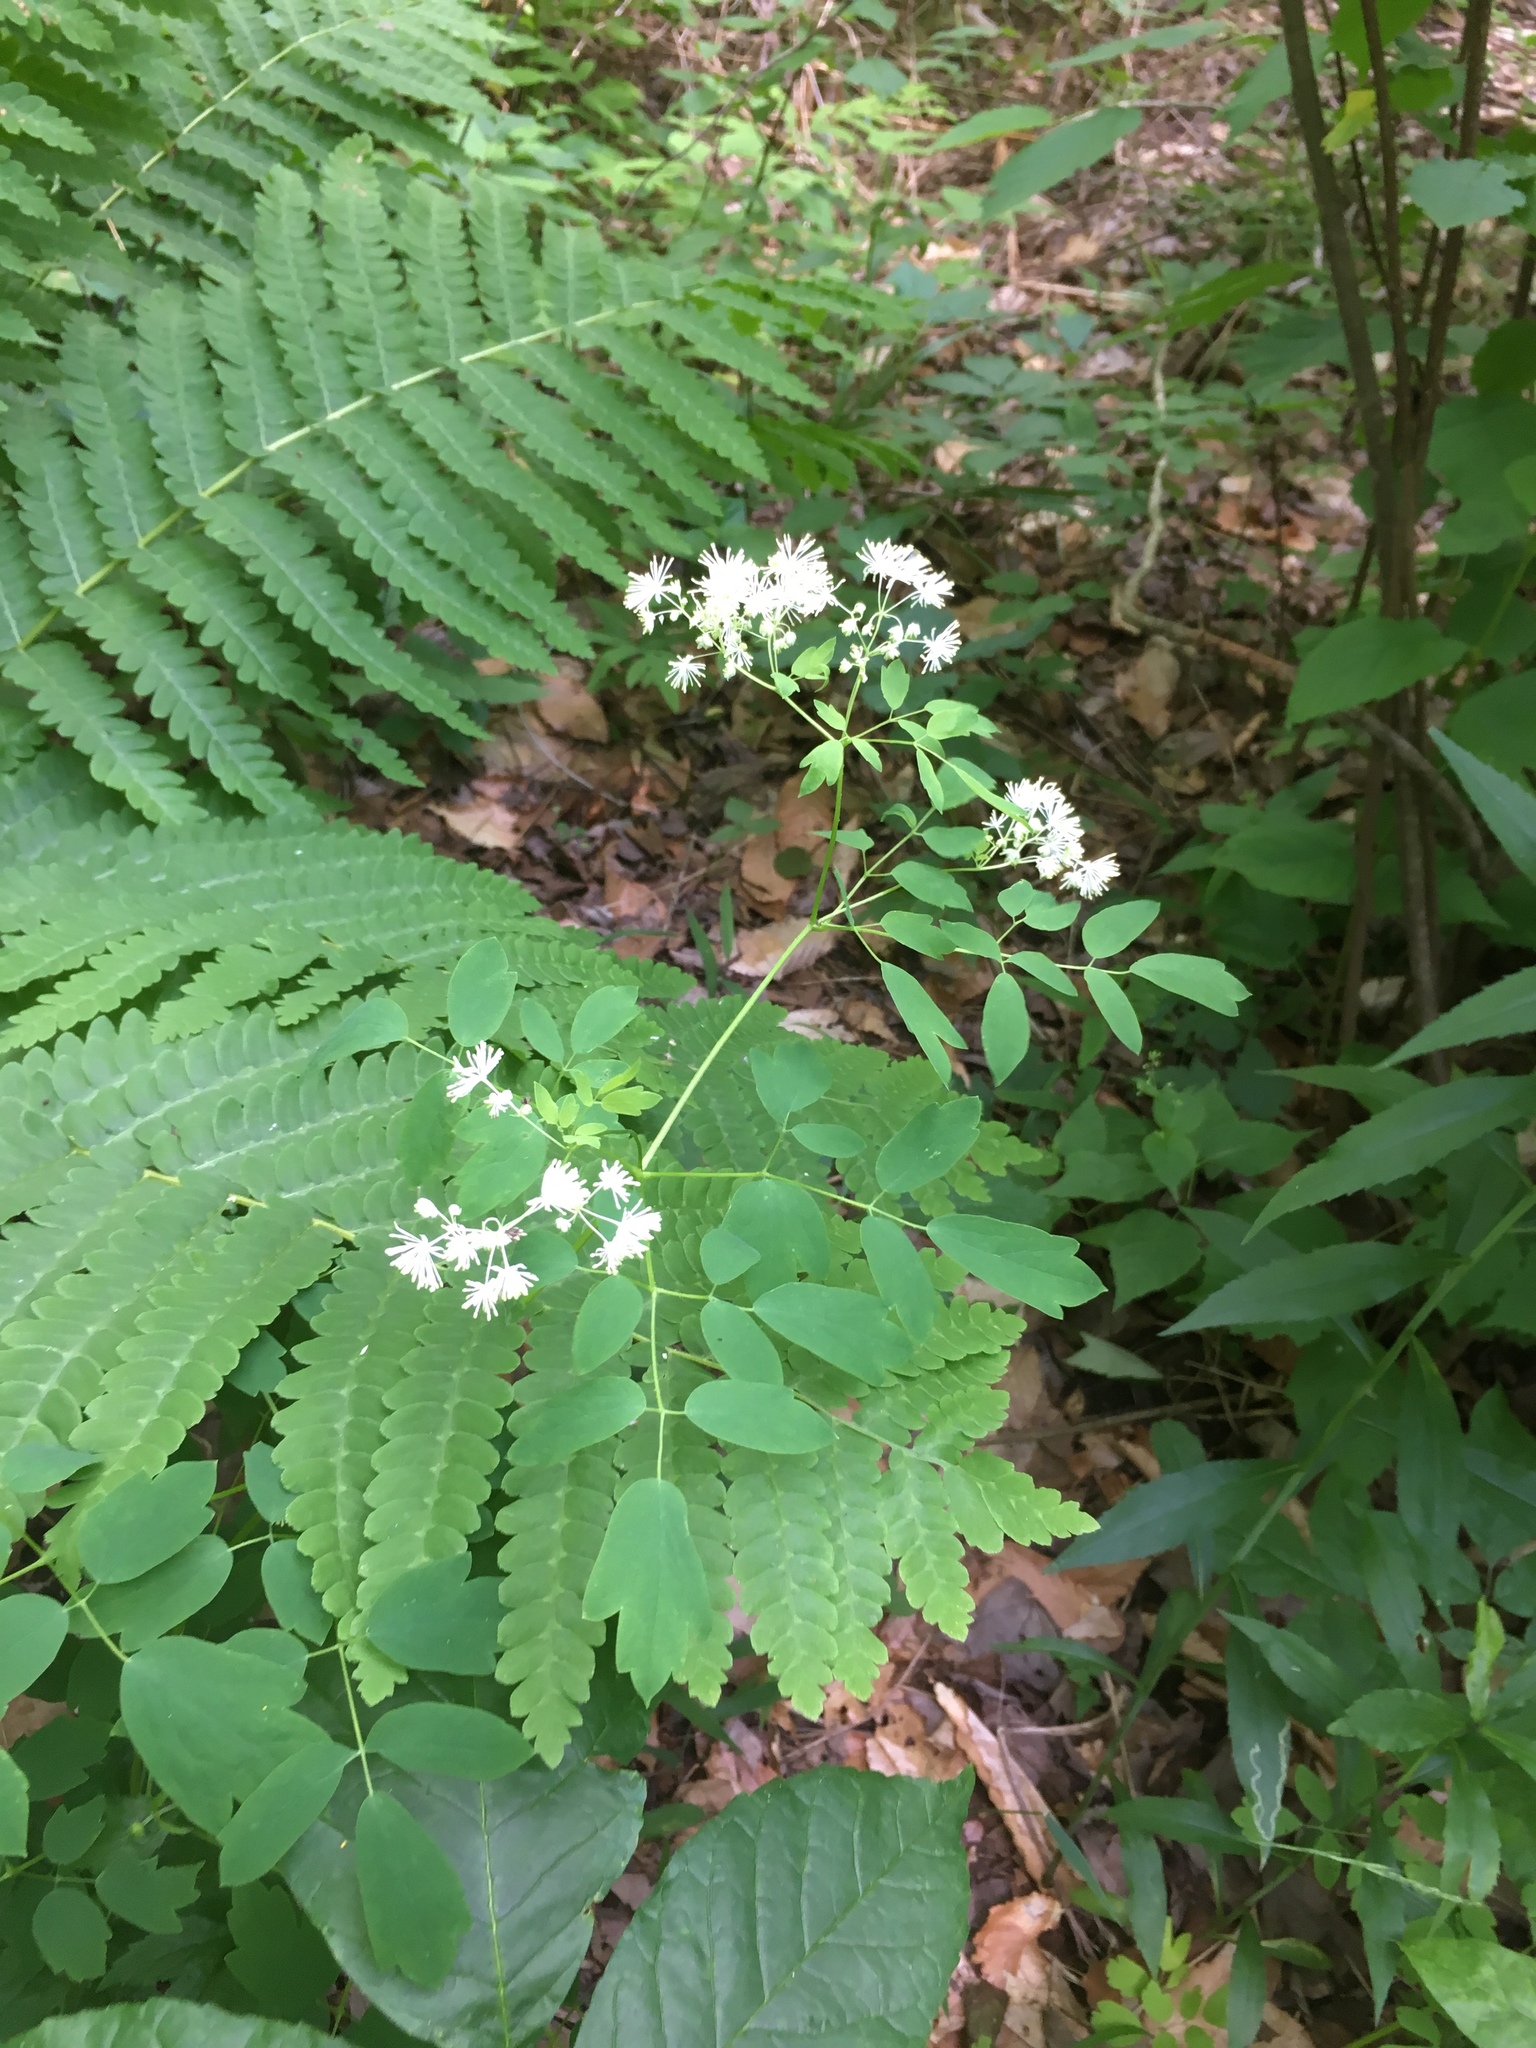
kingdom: Plantae
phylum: Tracheophyta
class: Magnoliopsida
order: Ranunculales
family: Ranunculaceae
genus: Thalictrum
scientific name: Thalictrum pubescens
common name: King-of-the-meadow
